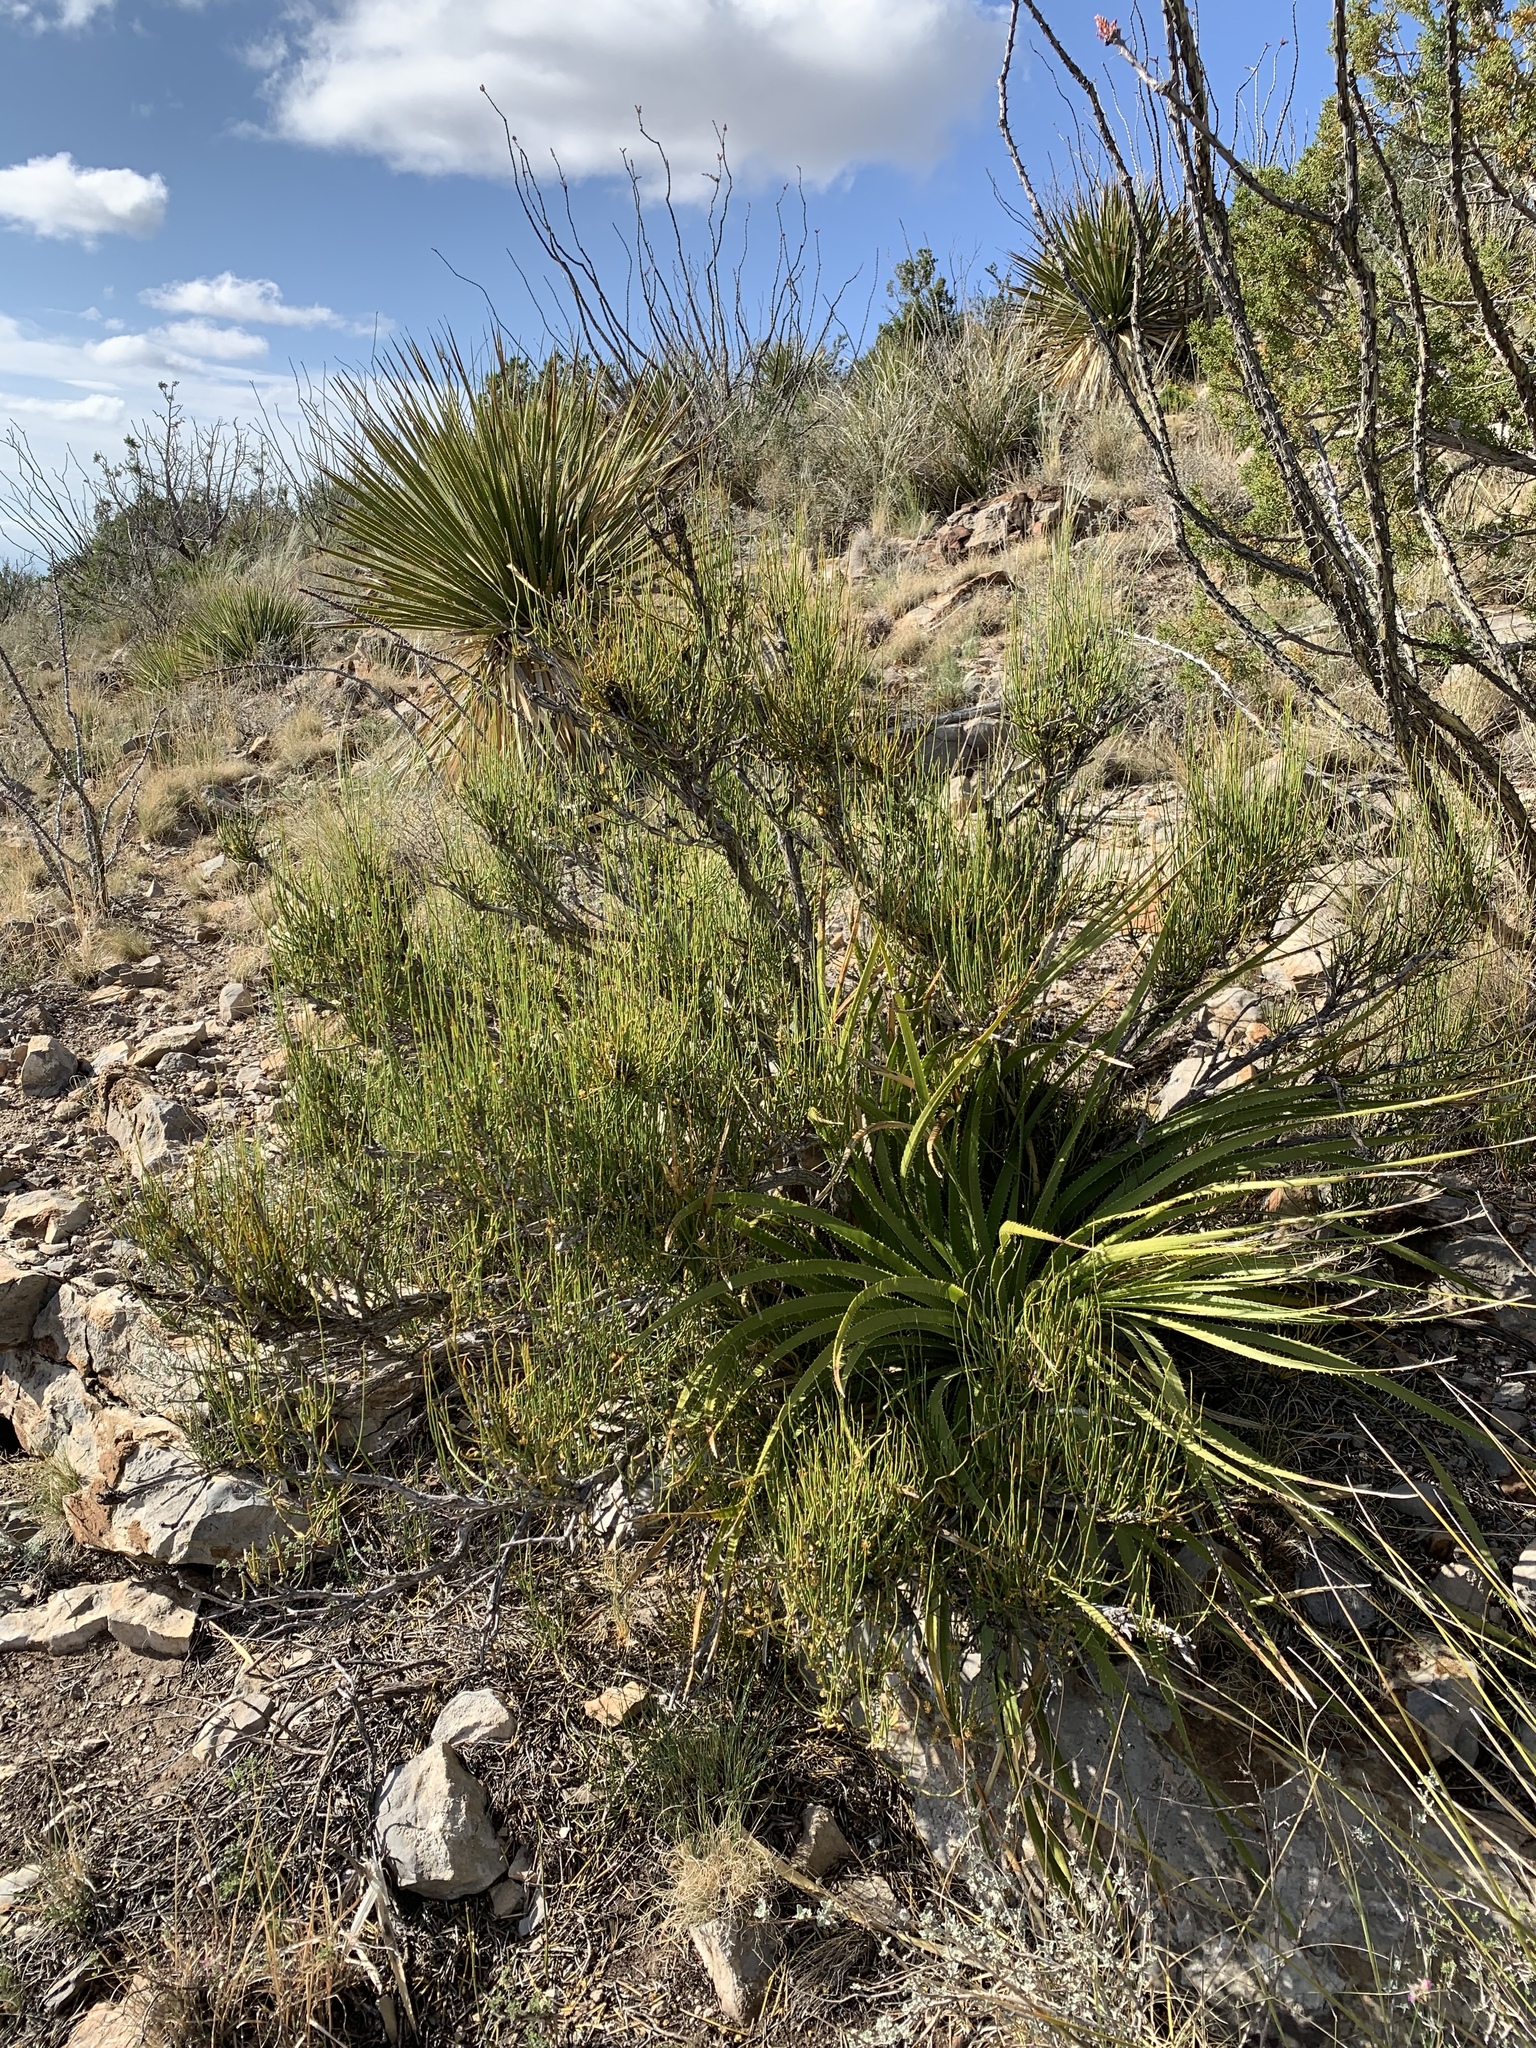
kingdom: Plantae
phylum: Tracheophyta
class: Gnetopsida
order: Ephedrales
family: Ephedraceae
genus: Ephedra
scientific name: Ephedra trifurca
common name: Mexican-tea
